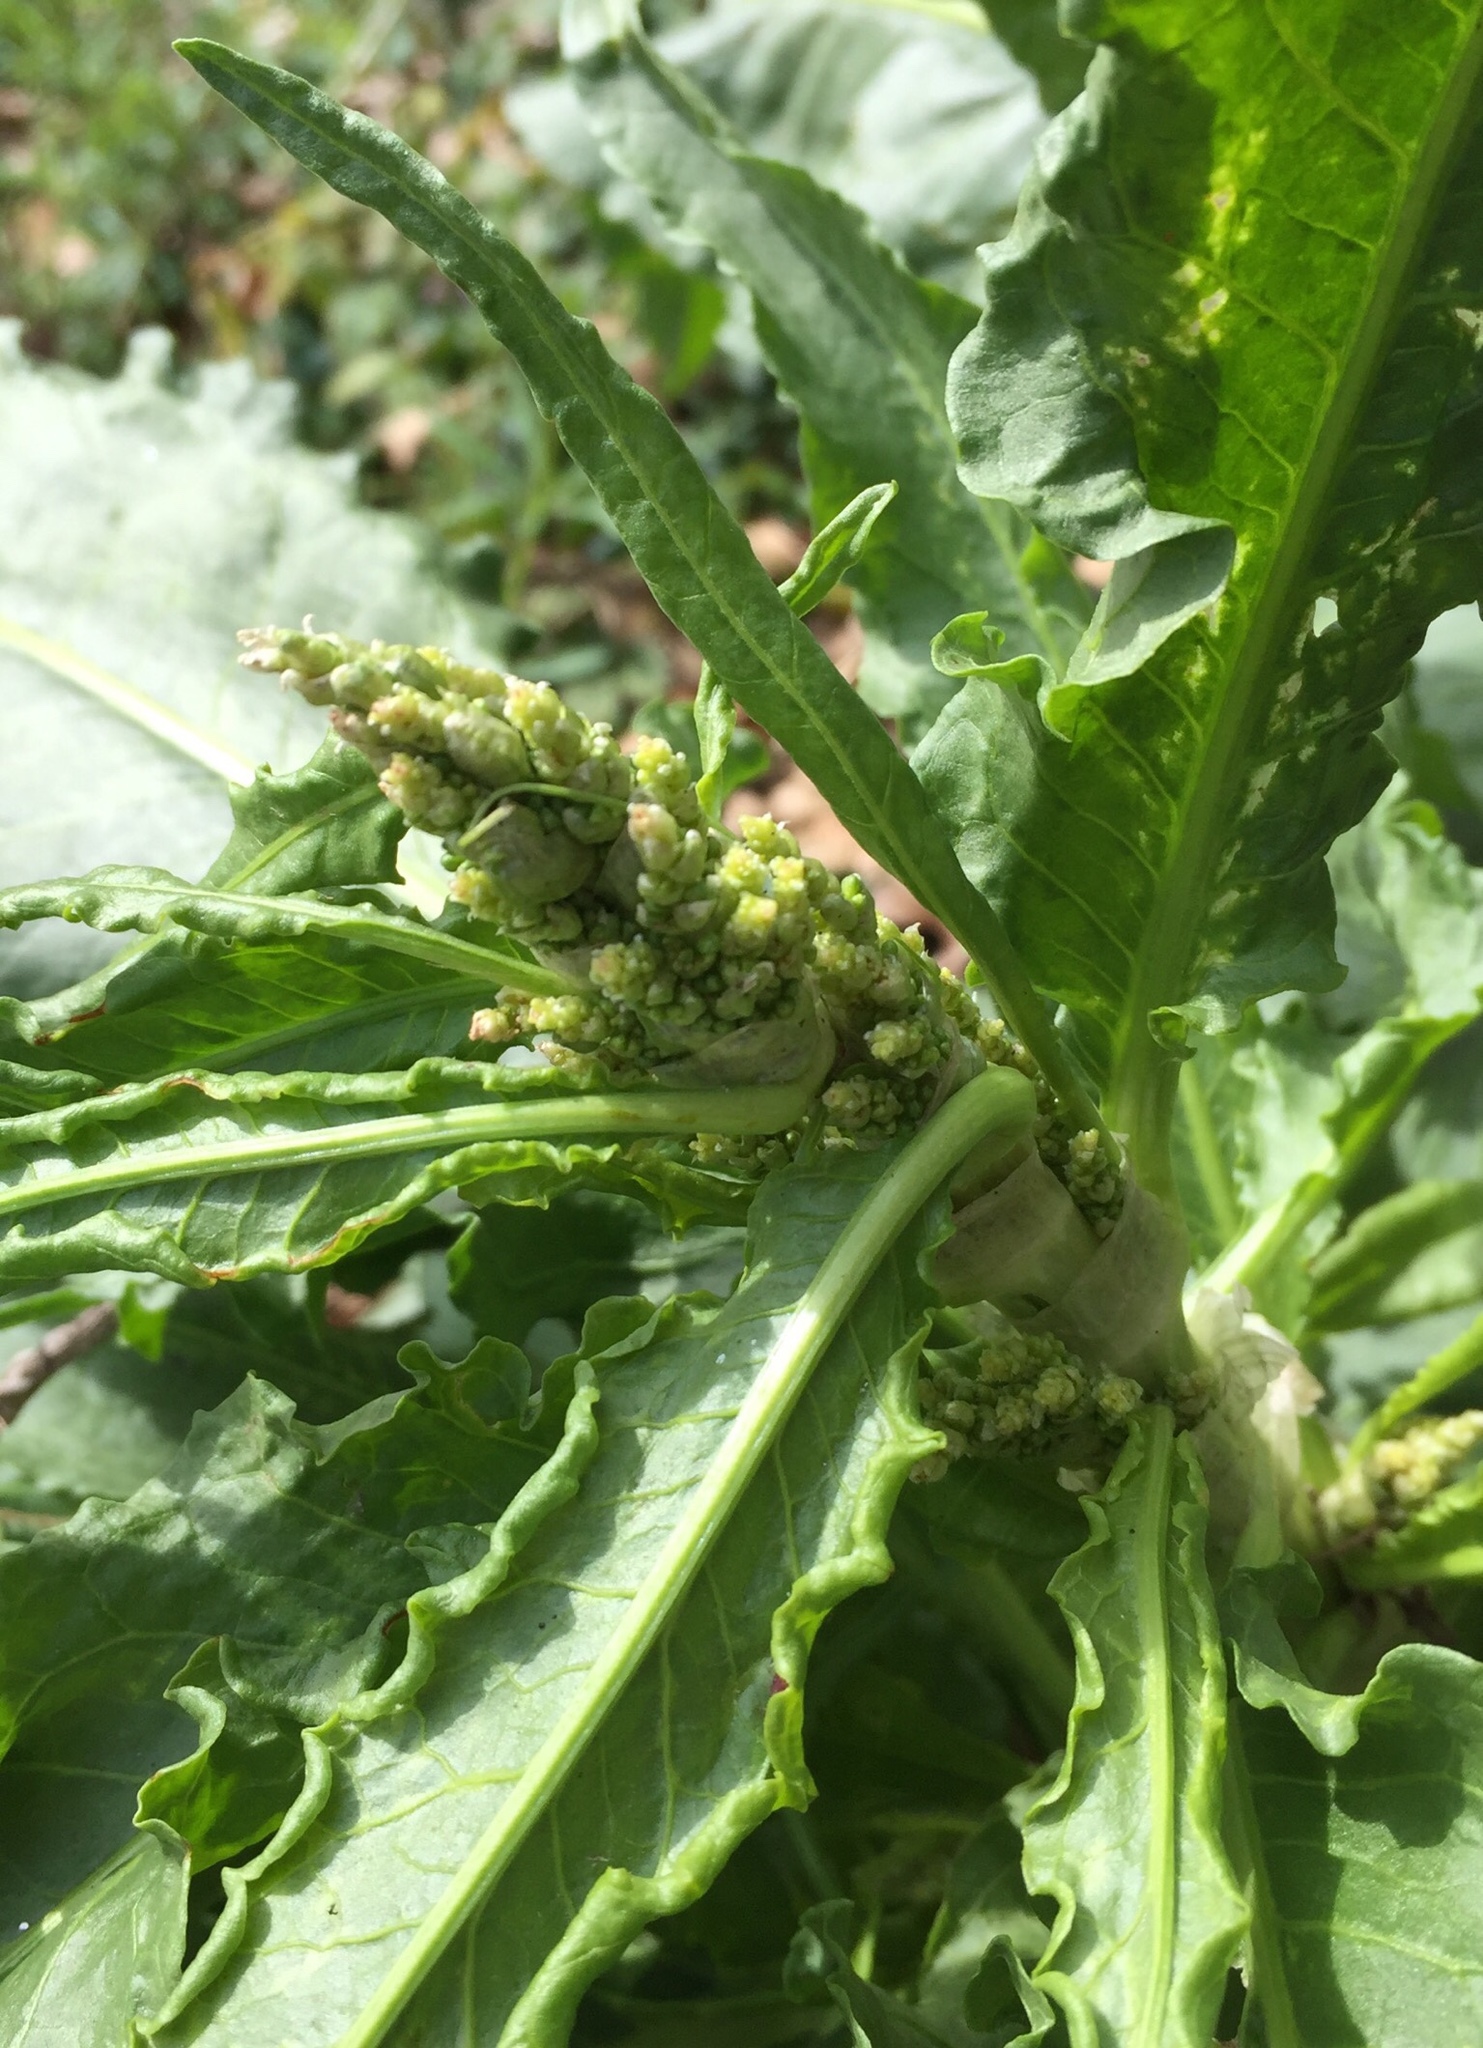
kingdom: Plantae
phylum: Tracheophyta
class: Magnoliopsida
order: Caryophyllales
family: Polygonaceae
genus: Rumex
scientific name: Rumex crispus
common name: Curled dock
